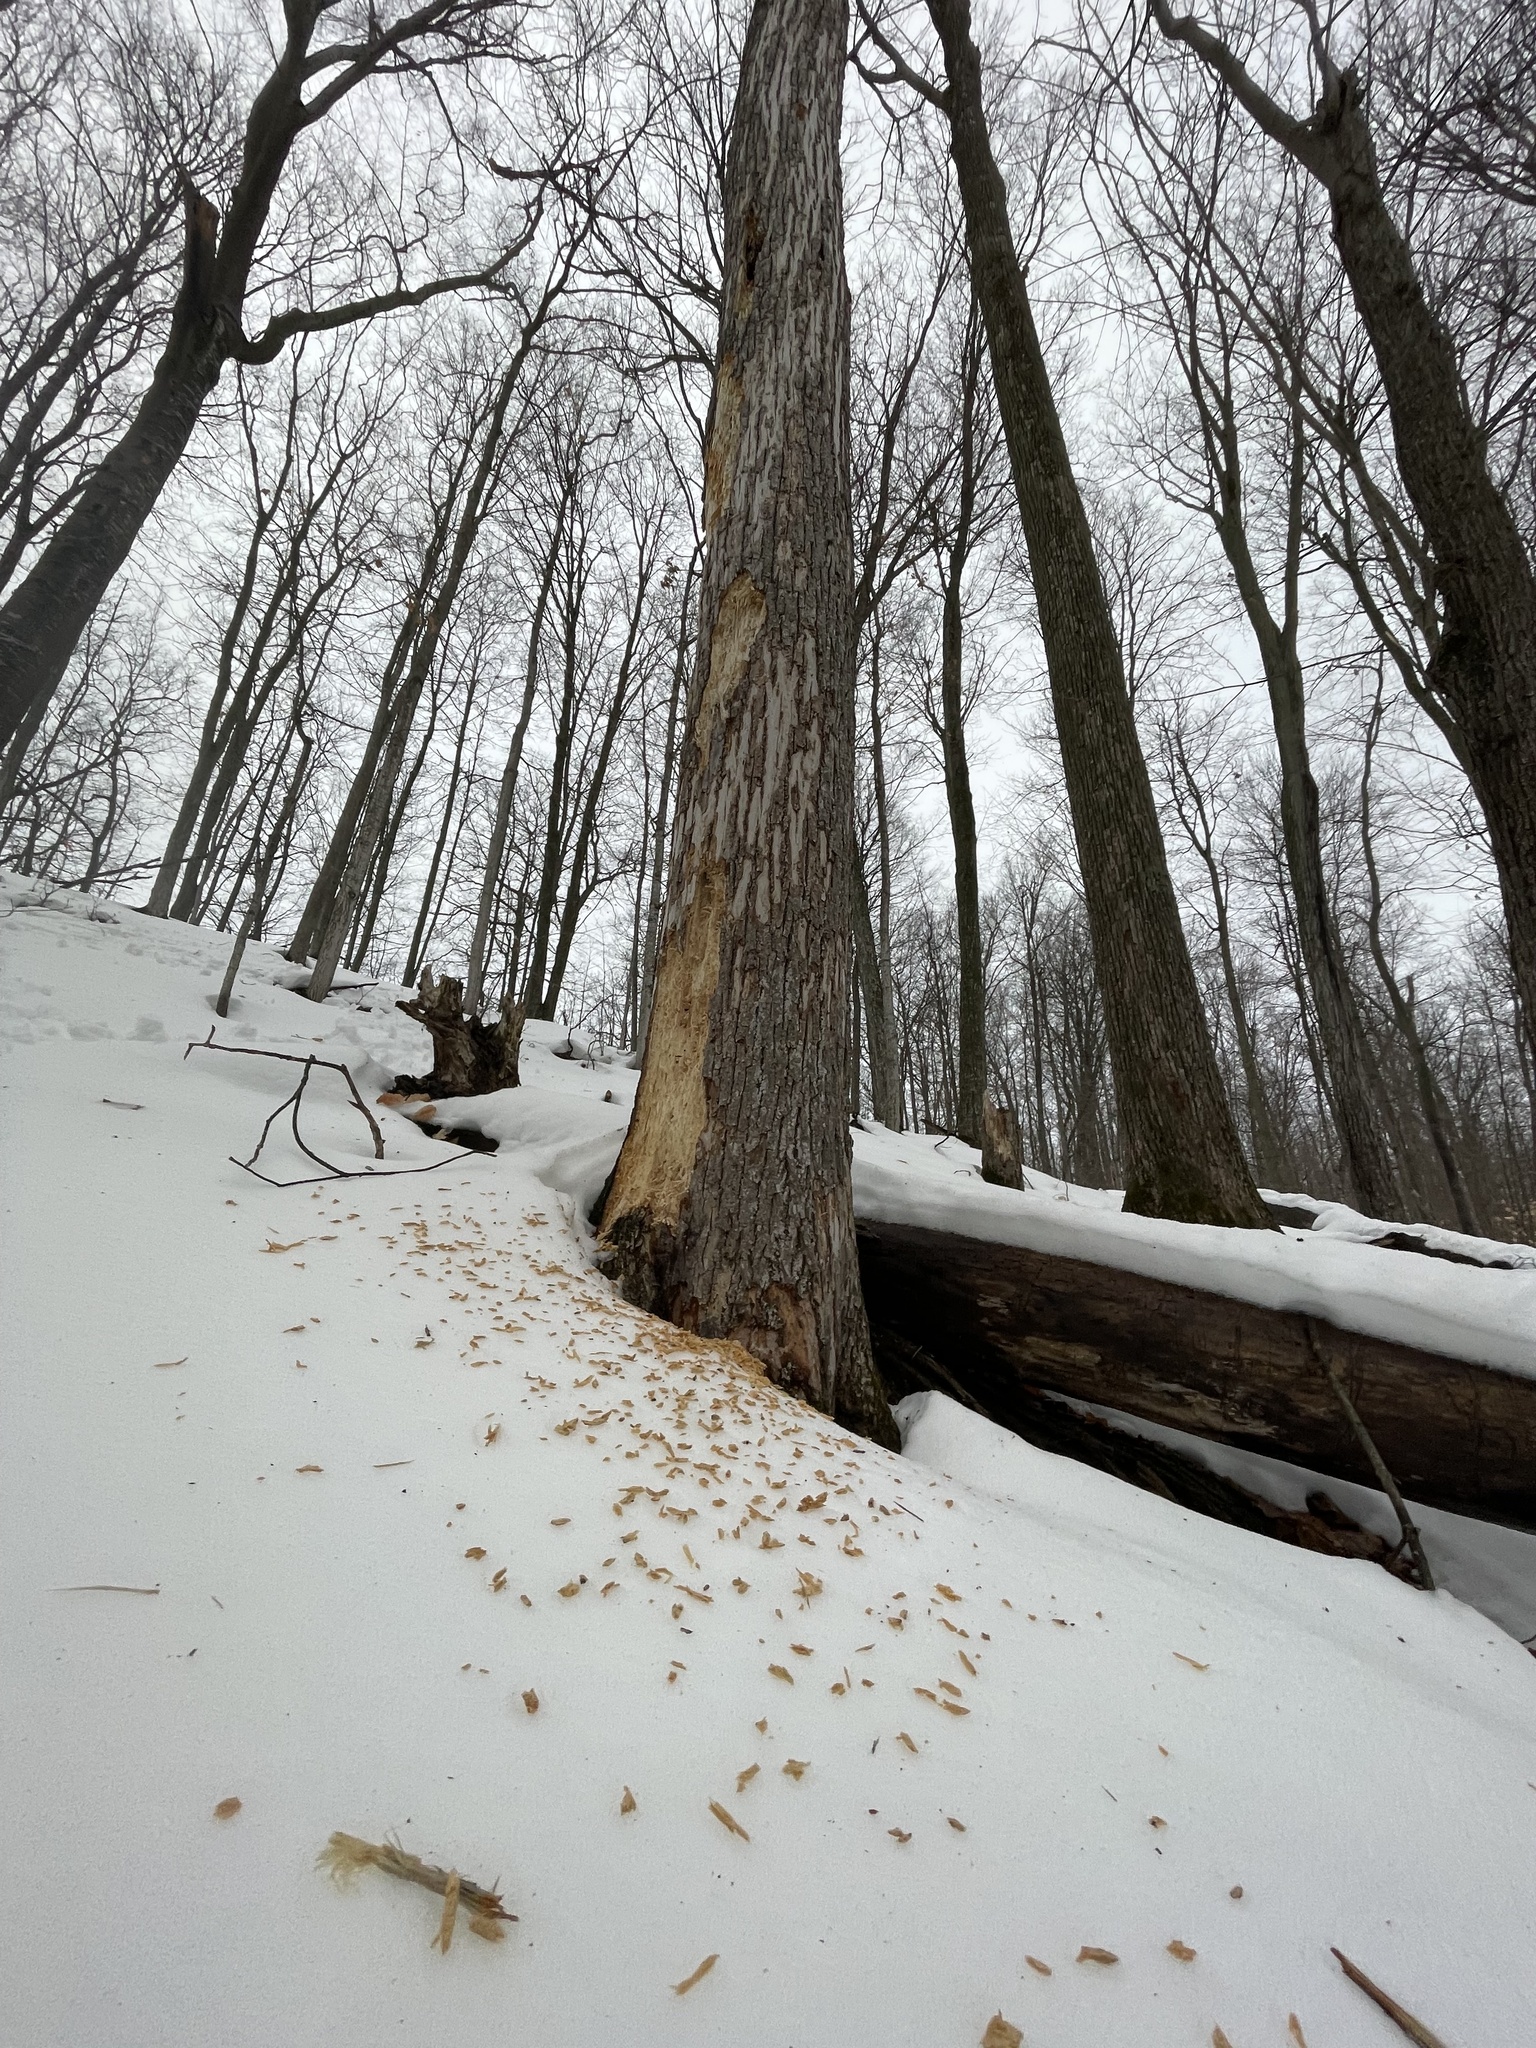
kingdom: Animalia
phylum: Chordata
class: Aves
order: Piciformes
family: Picidae
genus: Dryocopus
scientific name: Dryocopus pileatus
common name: Pileated woodpecker
